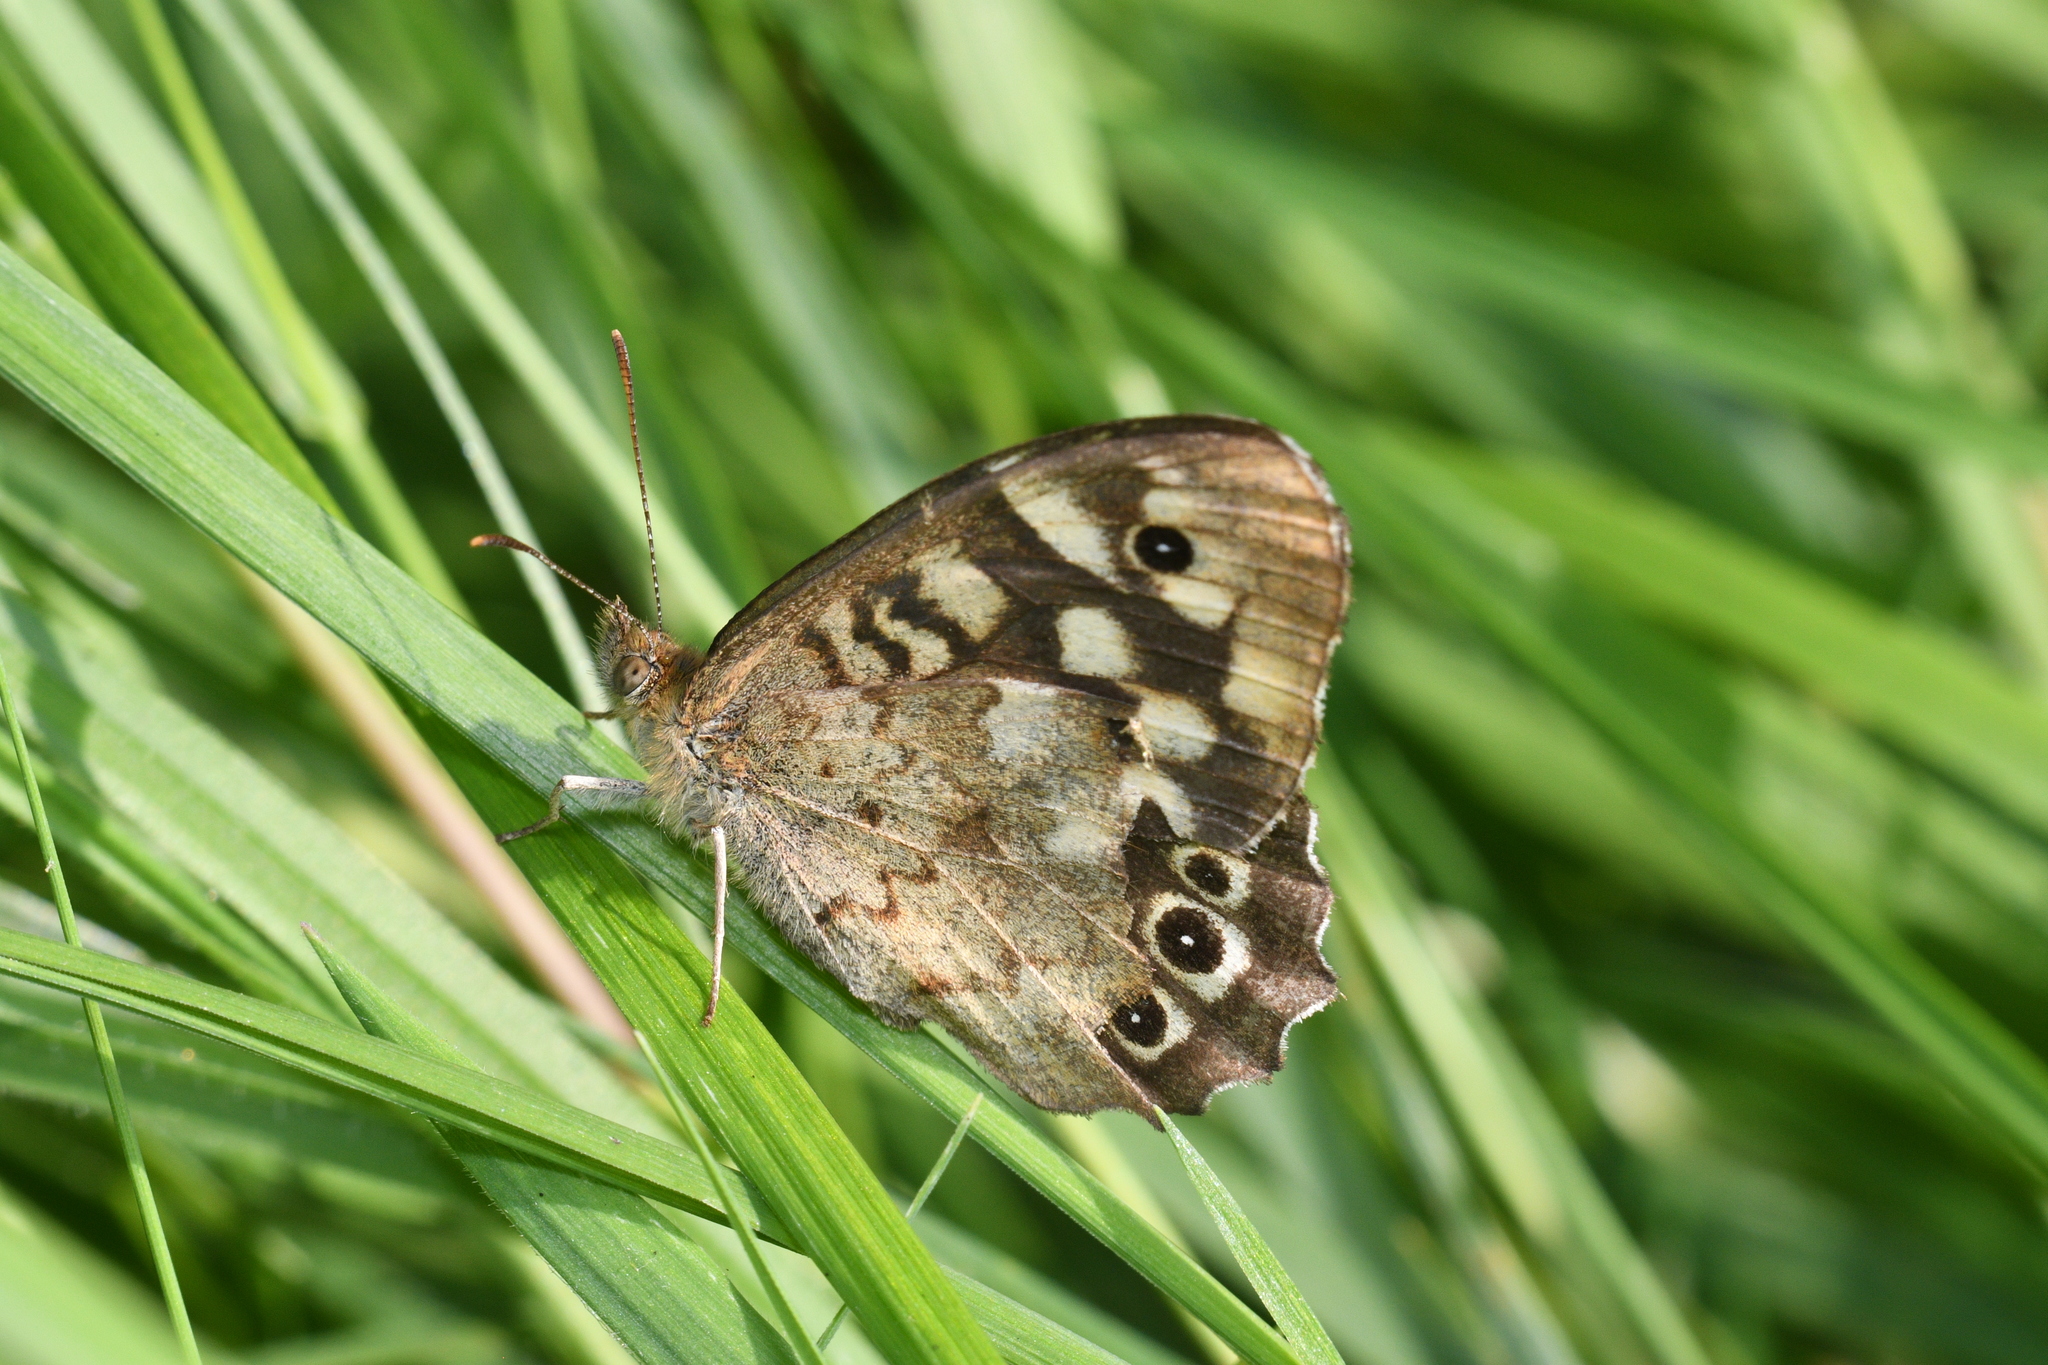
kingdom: Animalia
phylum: Arthropoda
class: Insecta
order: Lepidoptera
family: Nymphalidae
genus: Pararge
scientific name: Pararge aegeria
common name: Speckled wood
